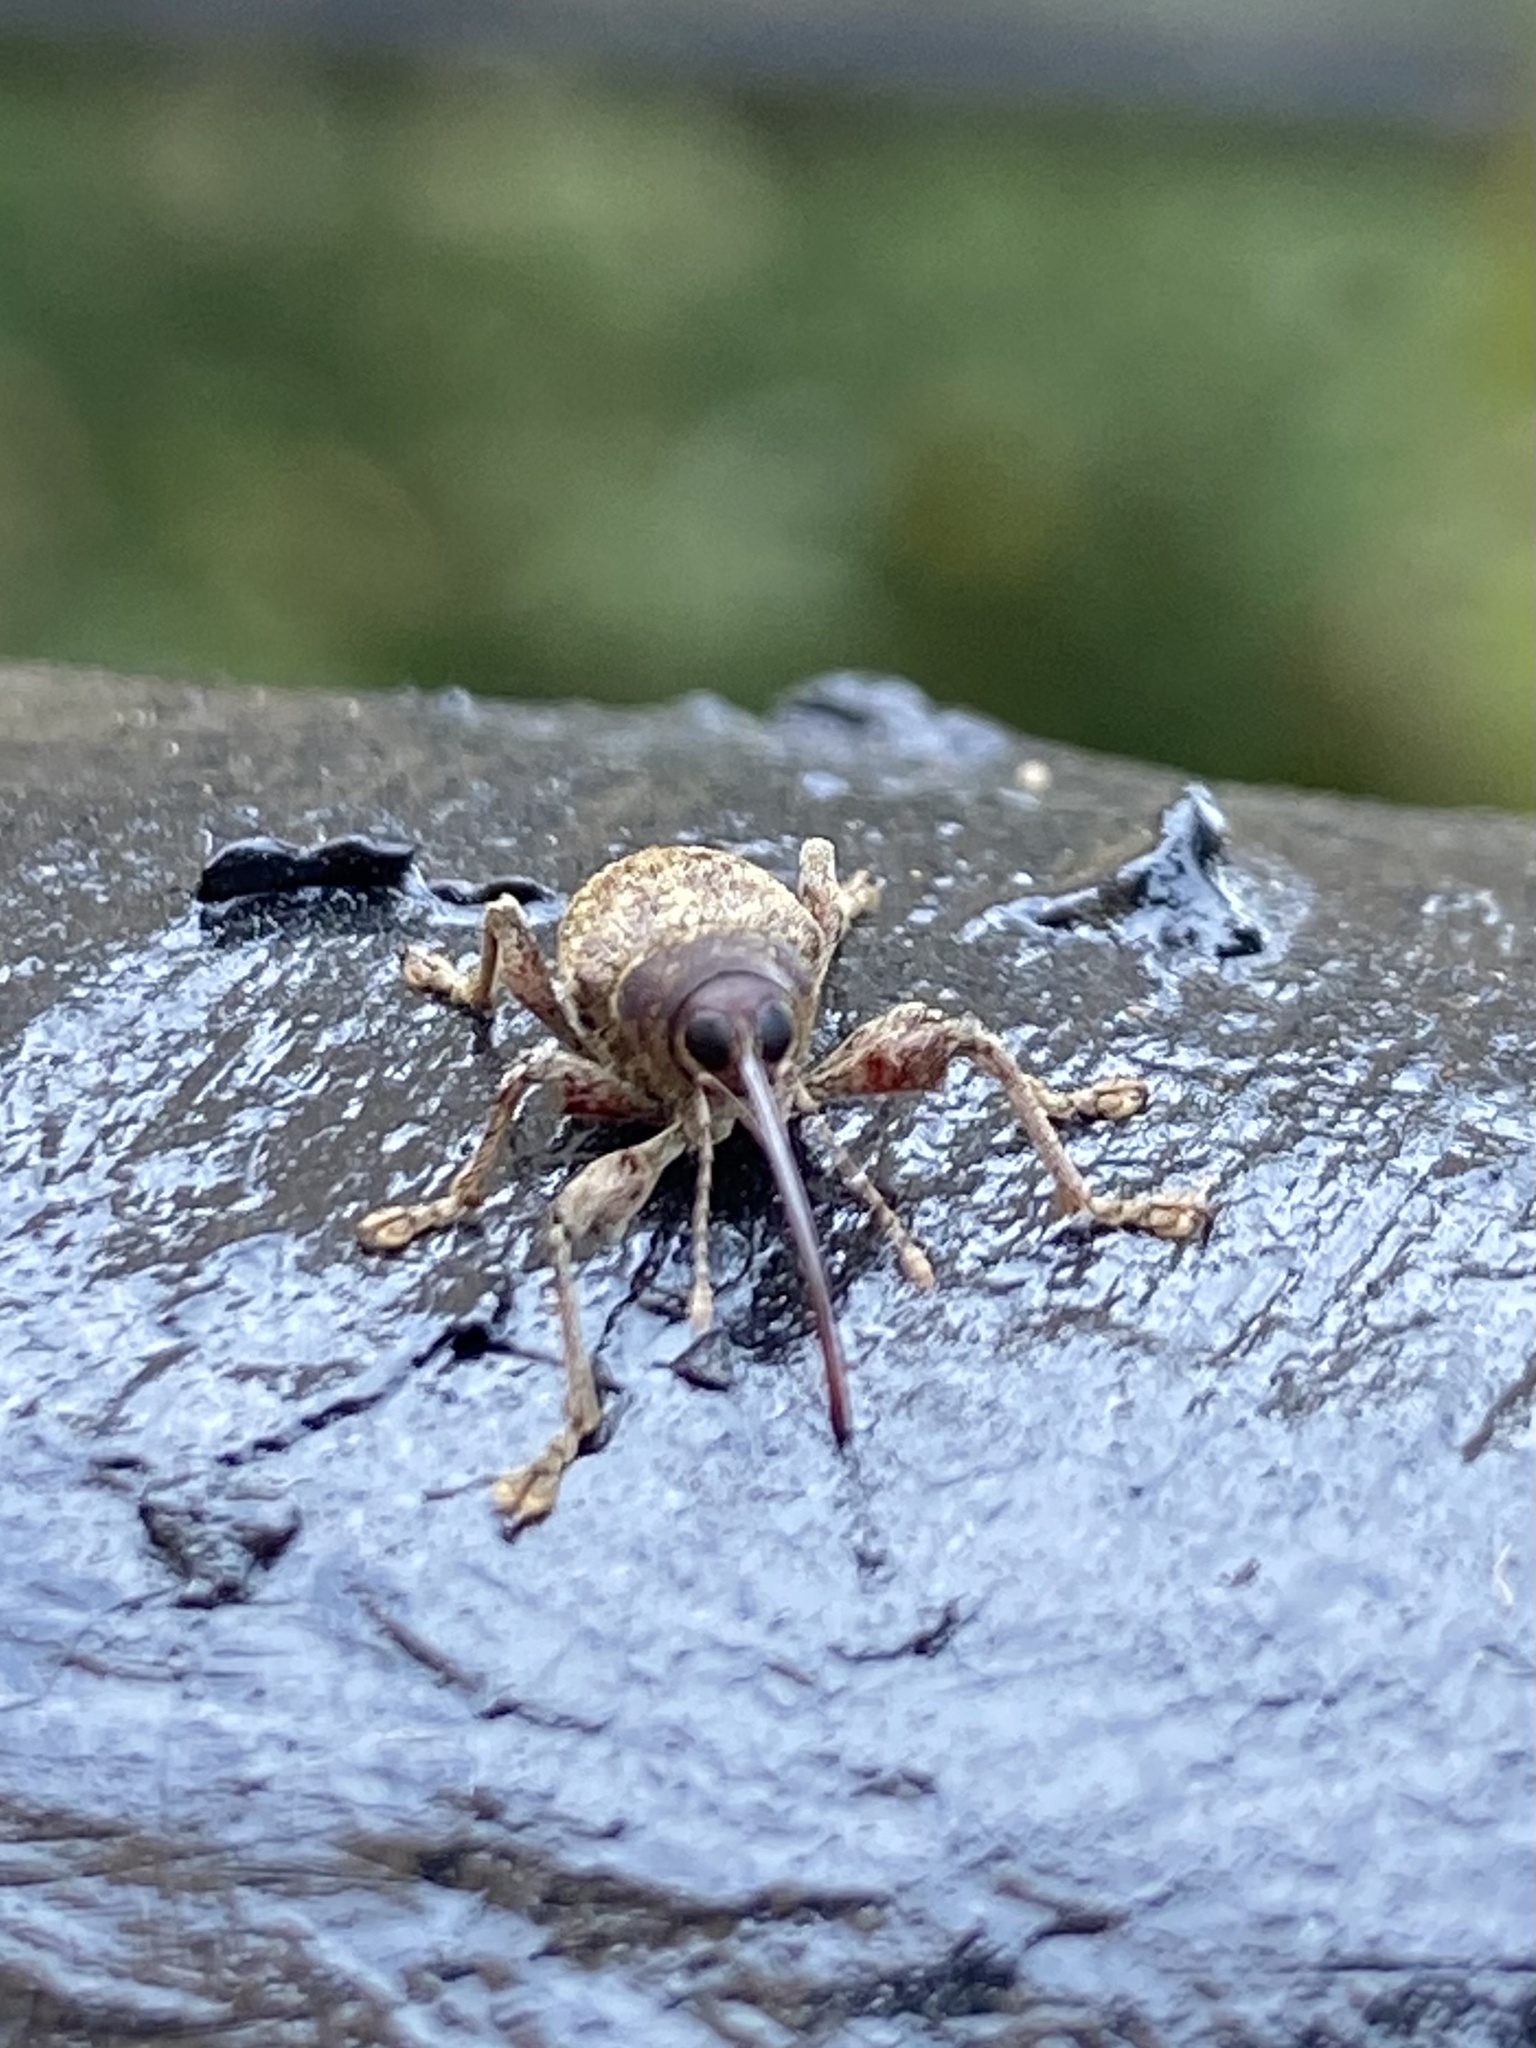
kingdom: Animalia
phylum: Arthropoda
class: Insecta
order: Coleoptera
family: Curculionidae
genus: Curculio
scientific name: Curculio
